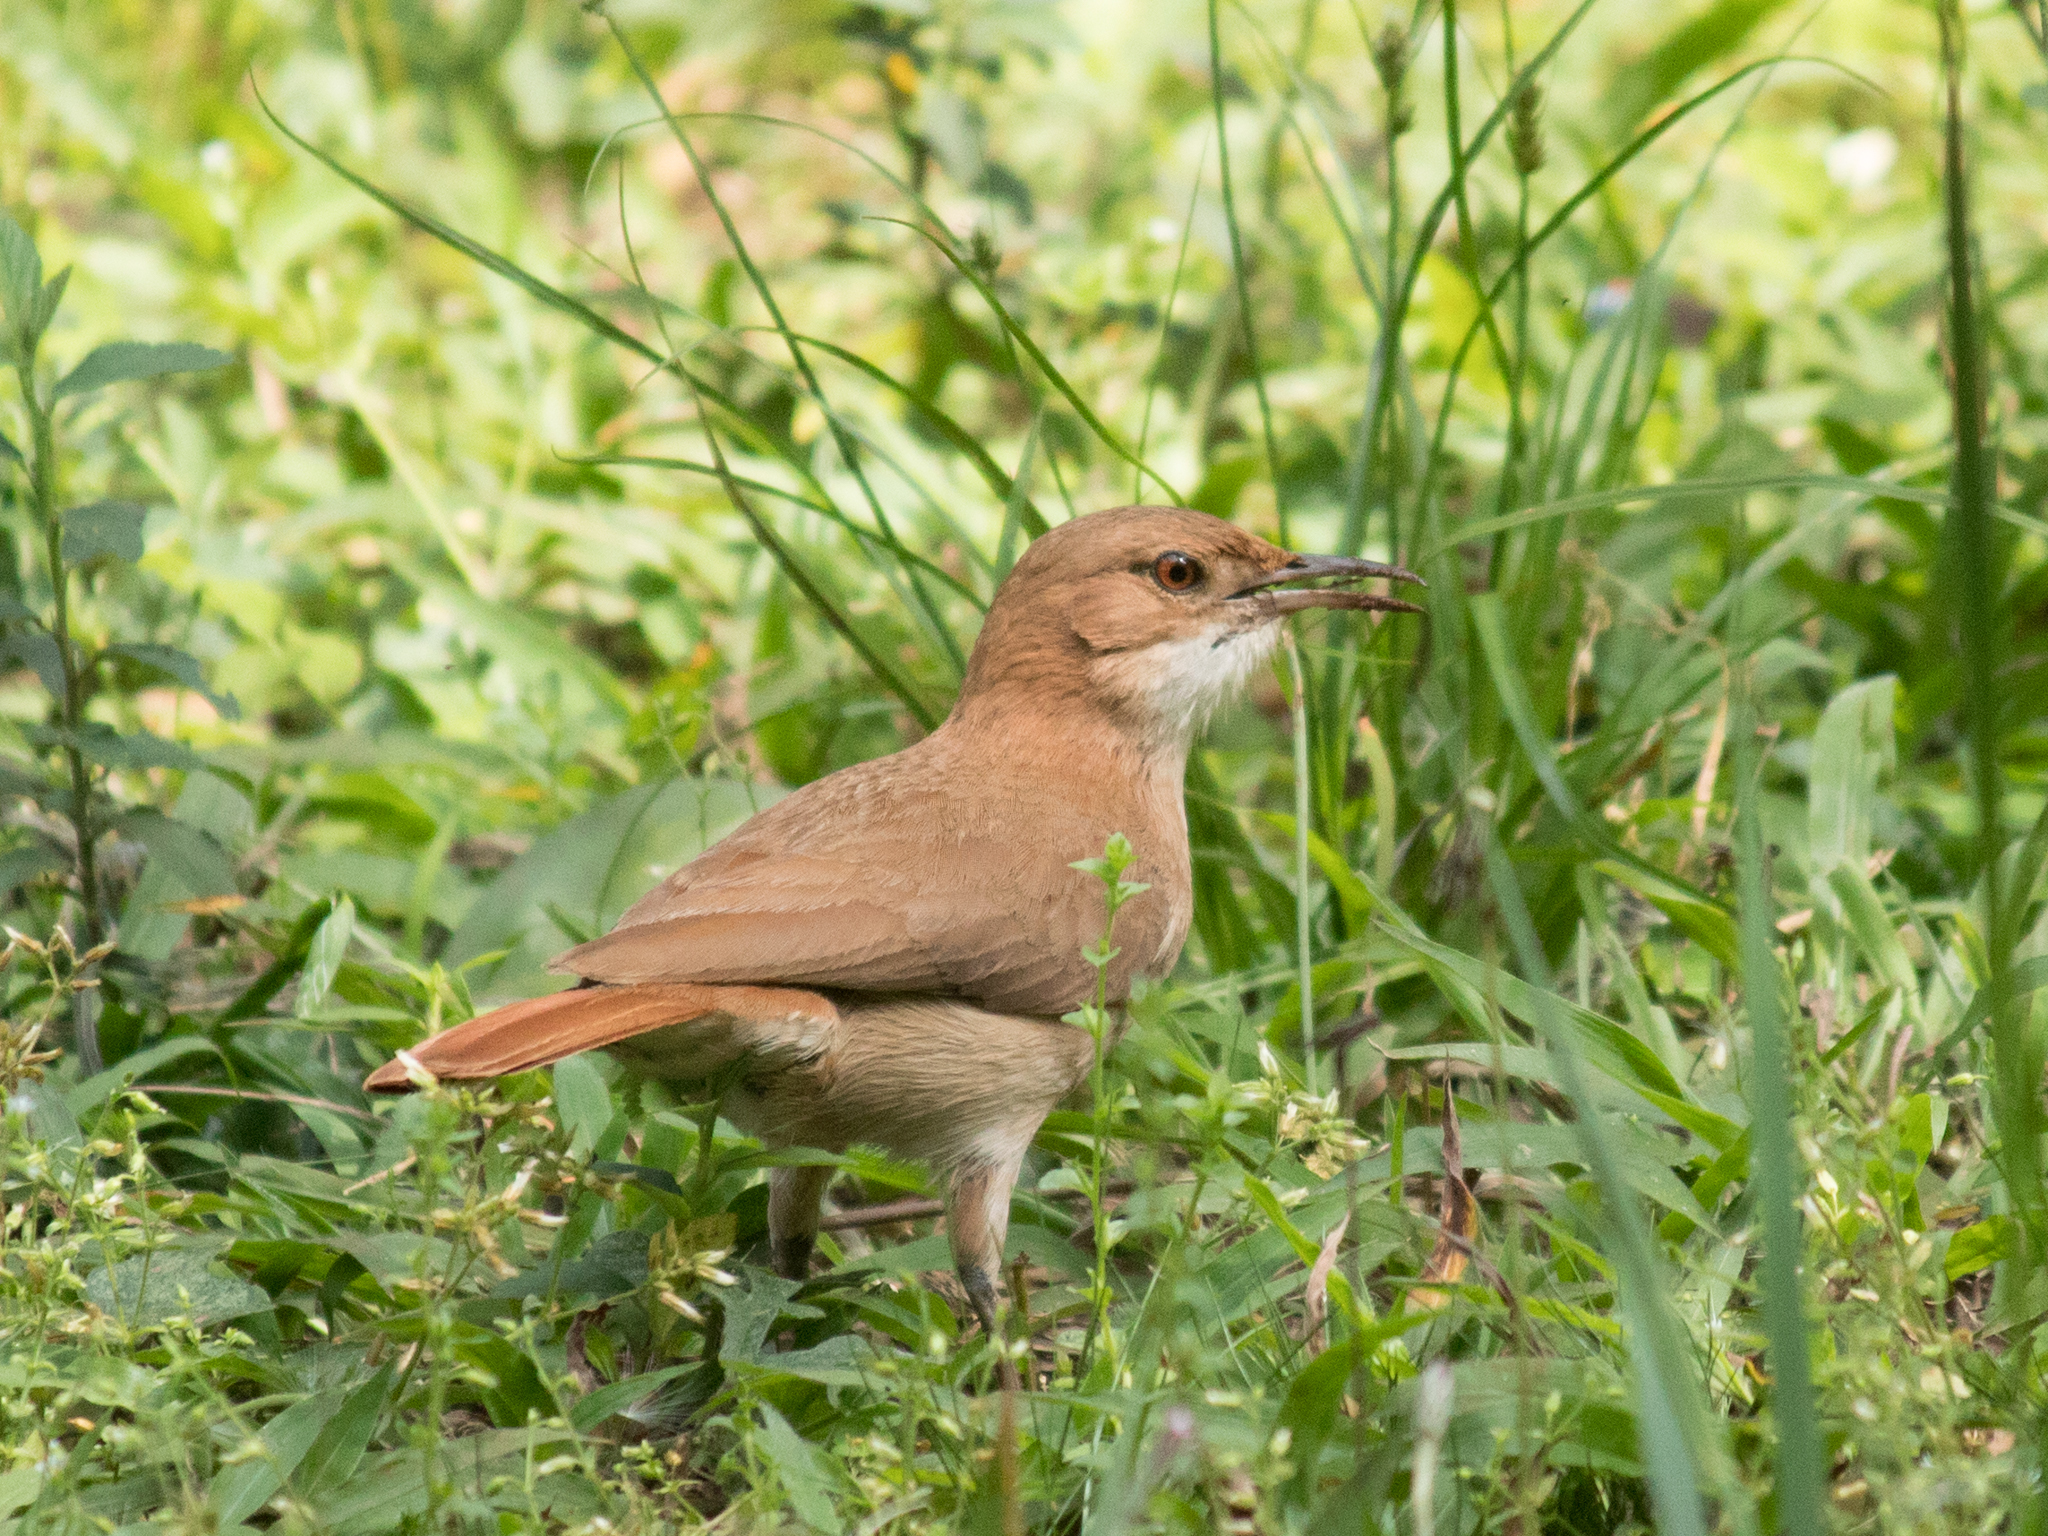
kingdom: Animalia
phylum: Chordata
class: Aves
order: Passeriformes
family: Furnariidae
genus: Furnarius
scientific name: Furnarius rufus
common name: Rufous hornero
